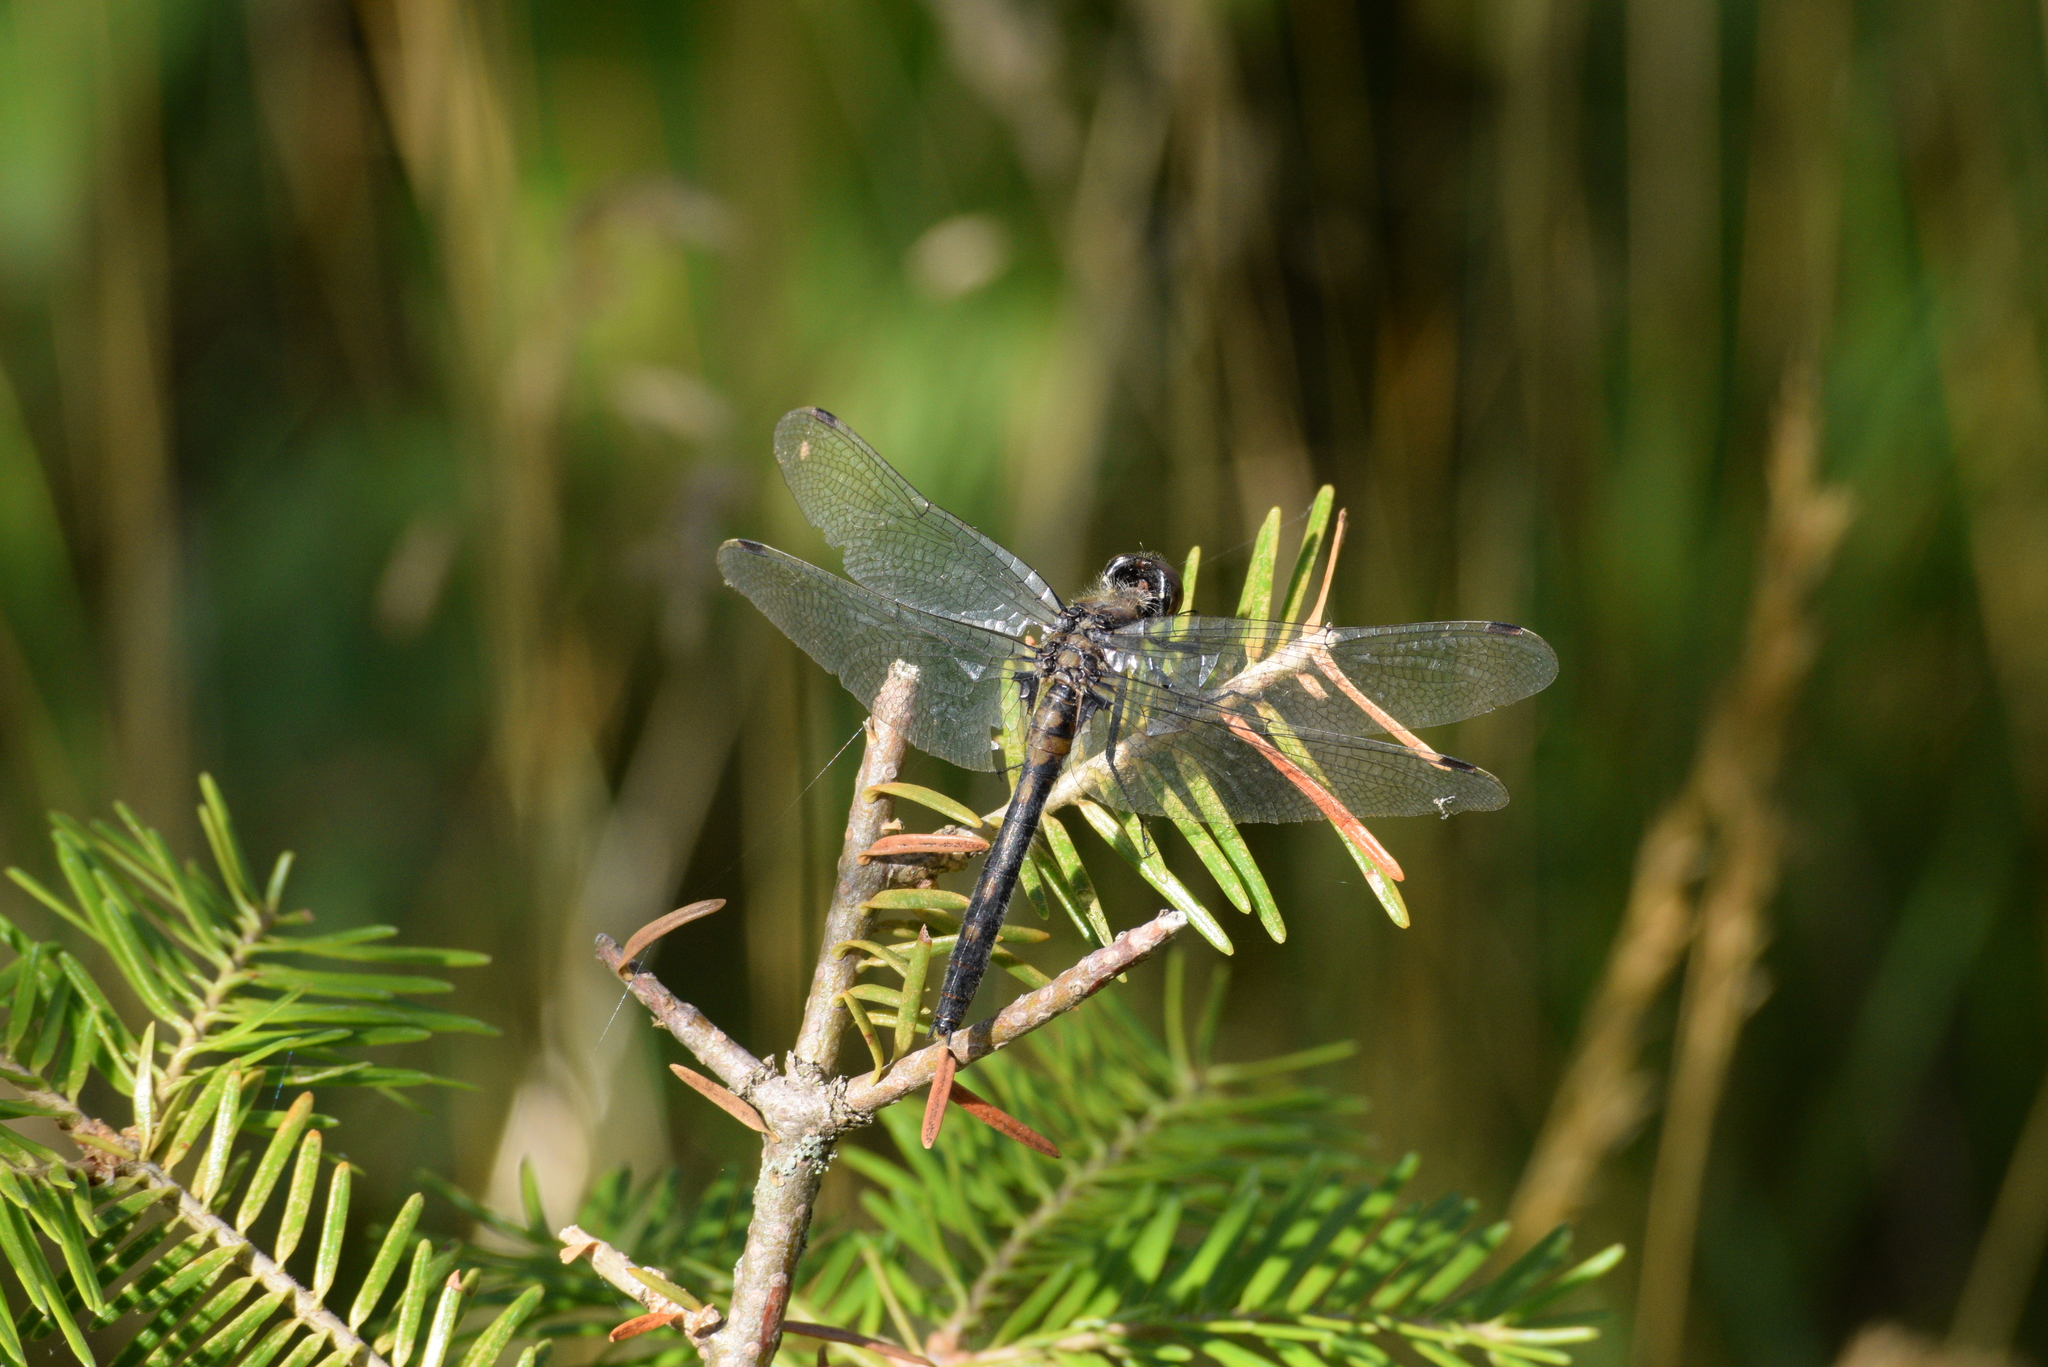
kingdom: Animalia
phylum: Arthropoda
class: Insecta
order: Odonata
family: Libellulidae
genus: Leucorrhinia
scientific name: Leucorrhinia proxima
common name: Belted whiteface
